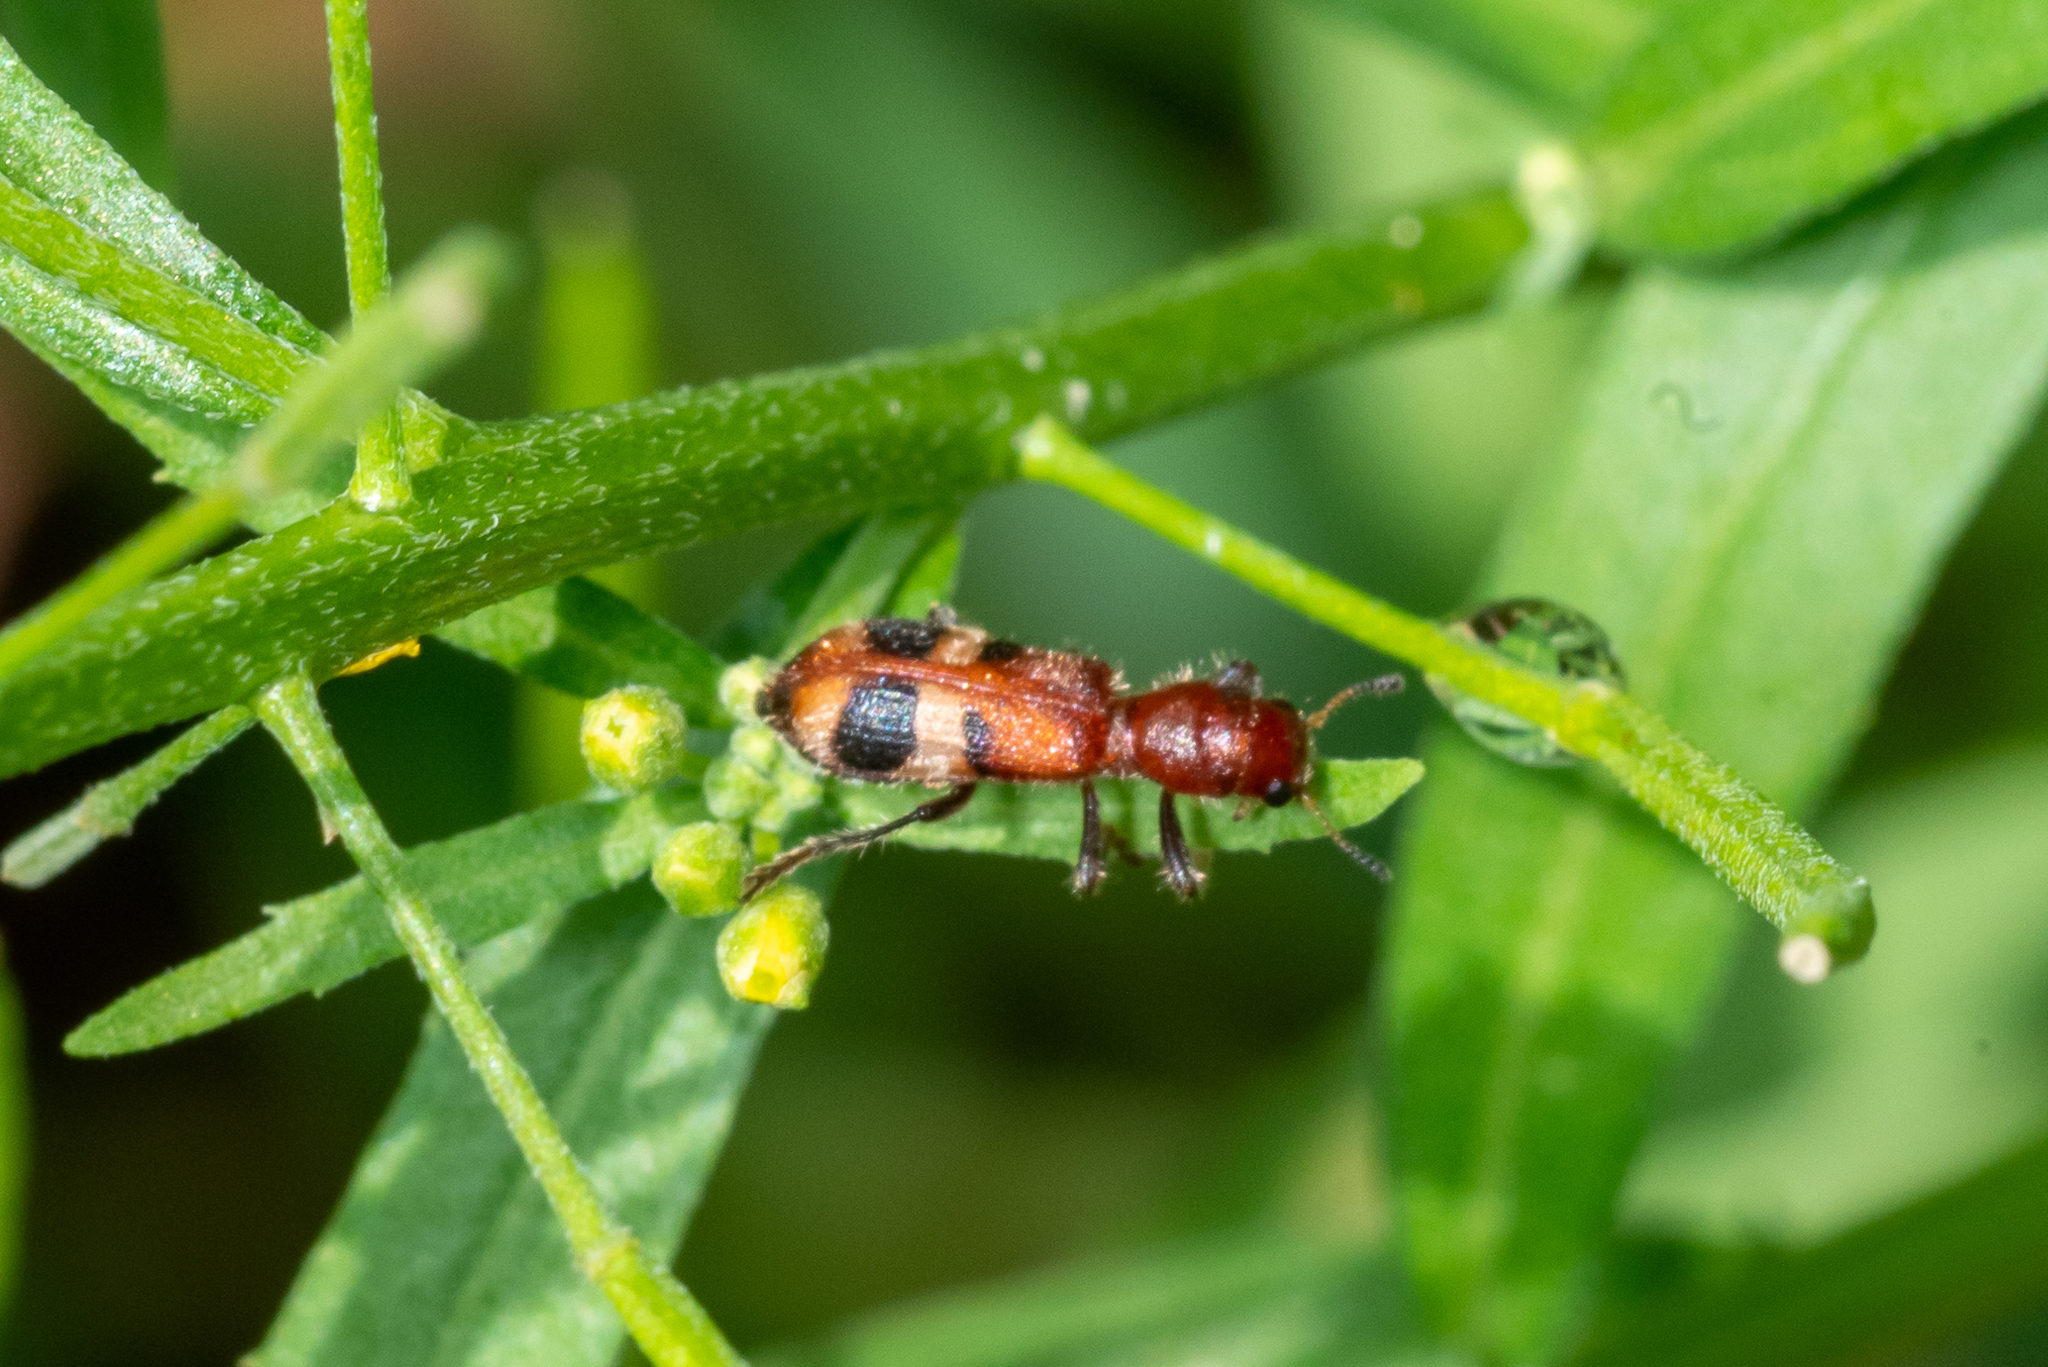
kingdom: Animalia
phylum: Arthropoda
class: Insecta
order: Coleoptera
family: Cleridae
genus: Enoclerus
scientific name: Enoclerus rosmarus
